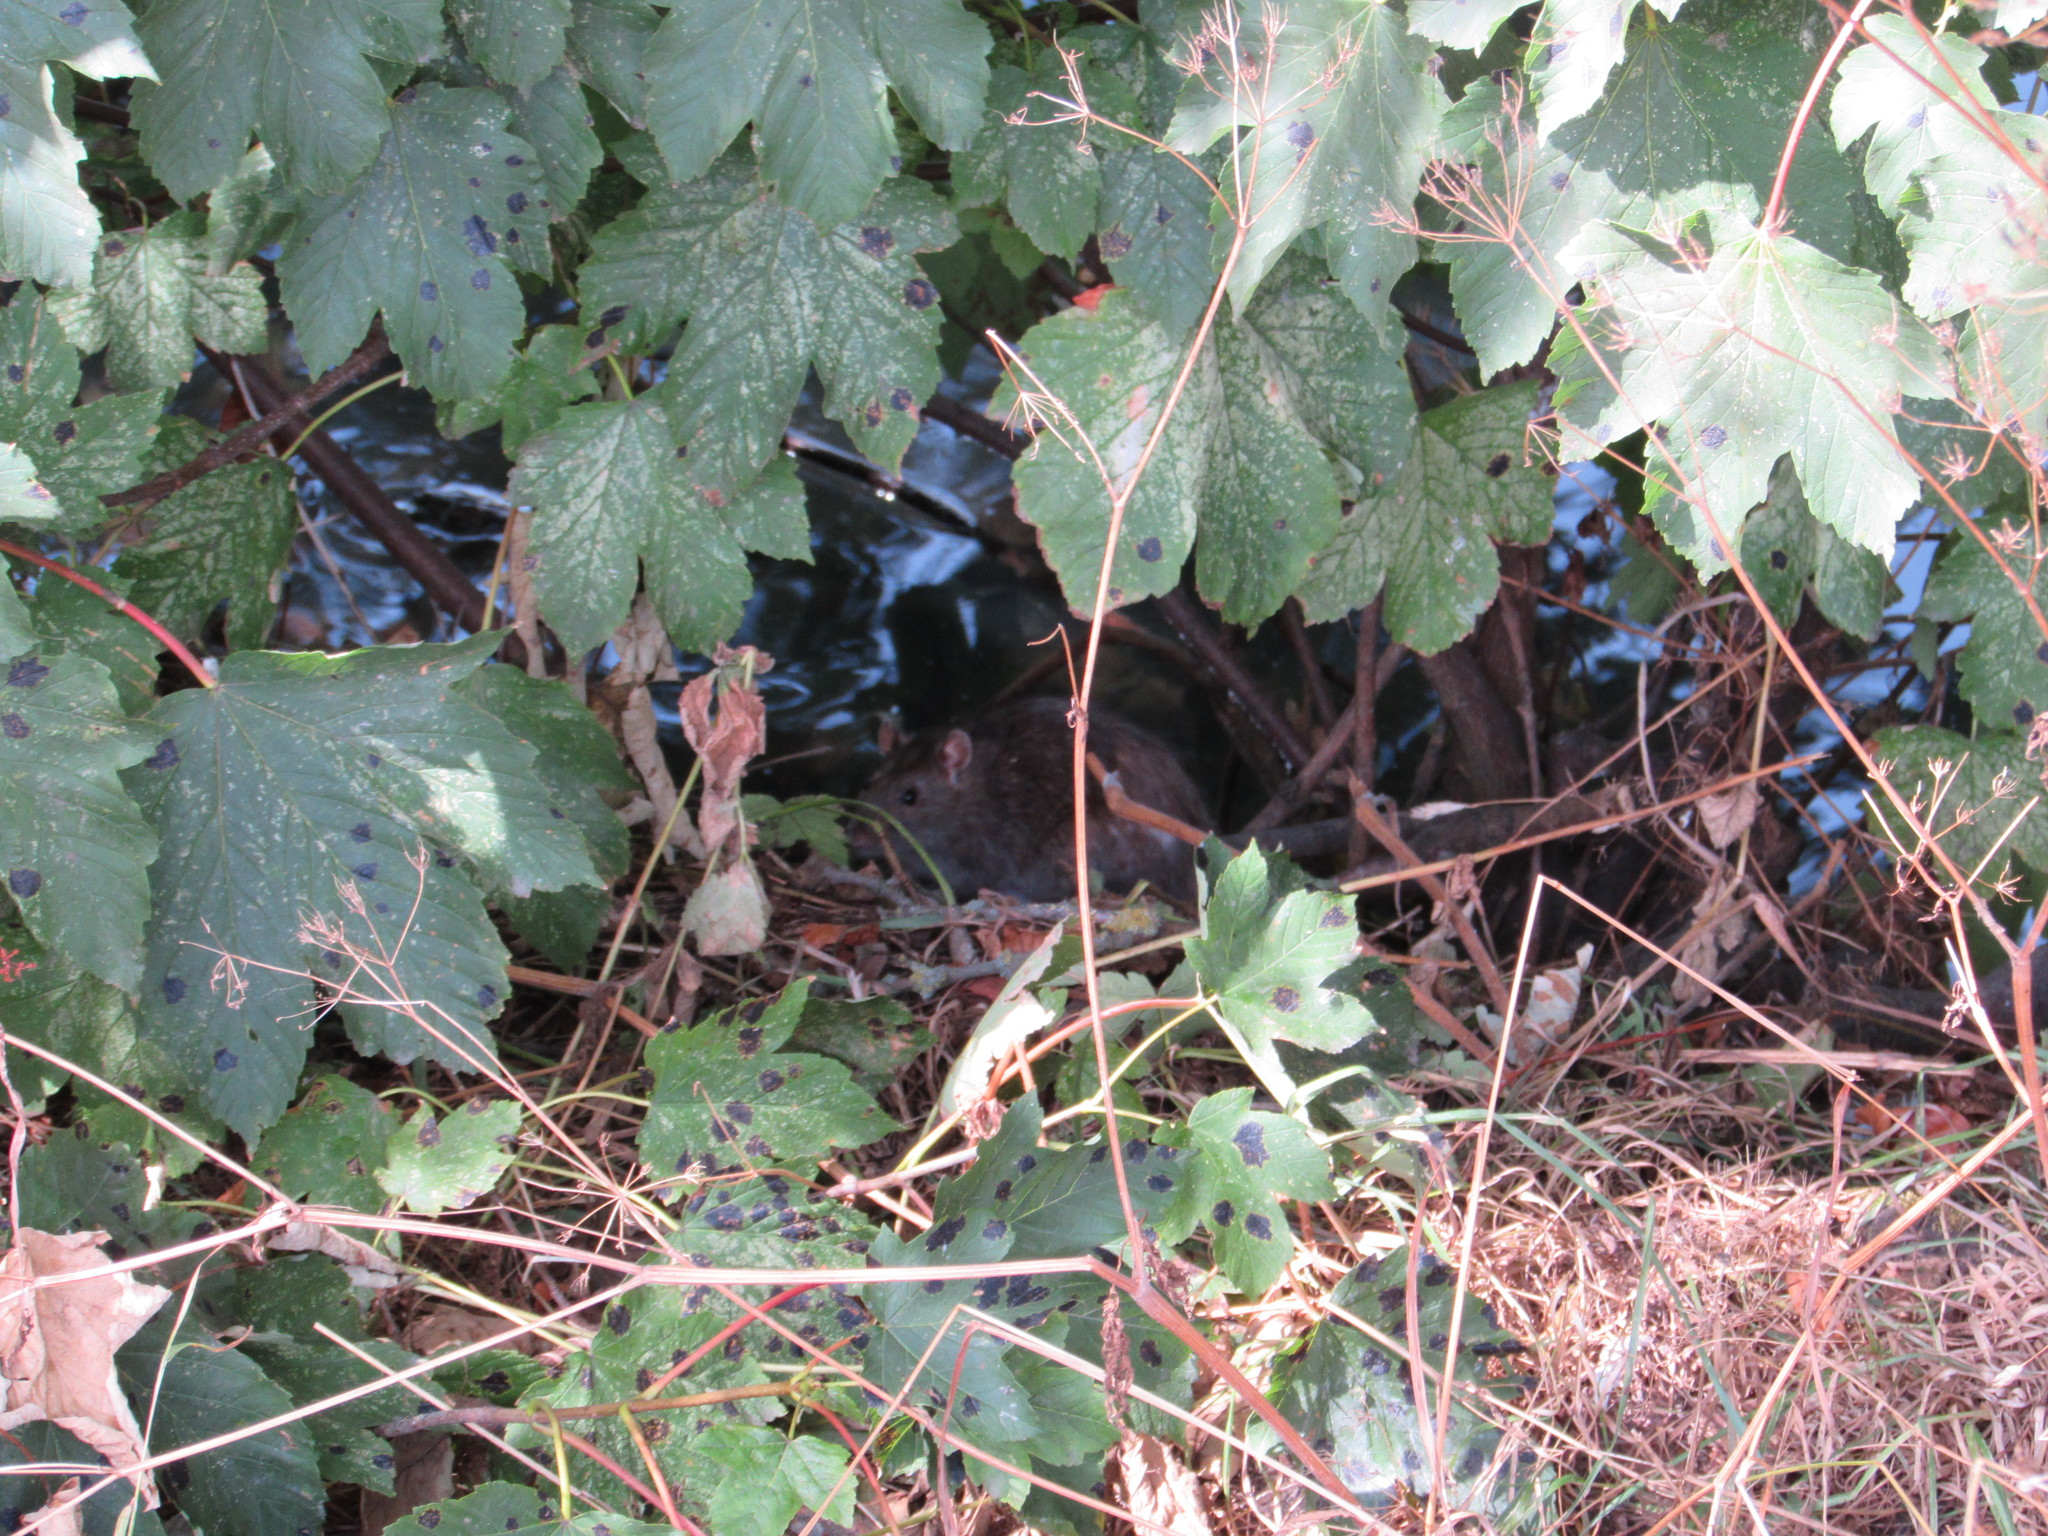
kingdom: Animalia
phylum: Chordata
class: Mammalia
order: Rodentia
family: Muridae
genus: Rattus
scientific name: Rattus norvegicus
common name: Brown rat
